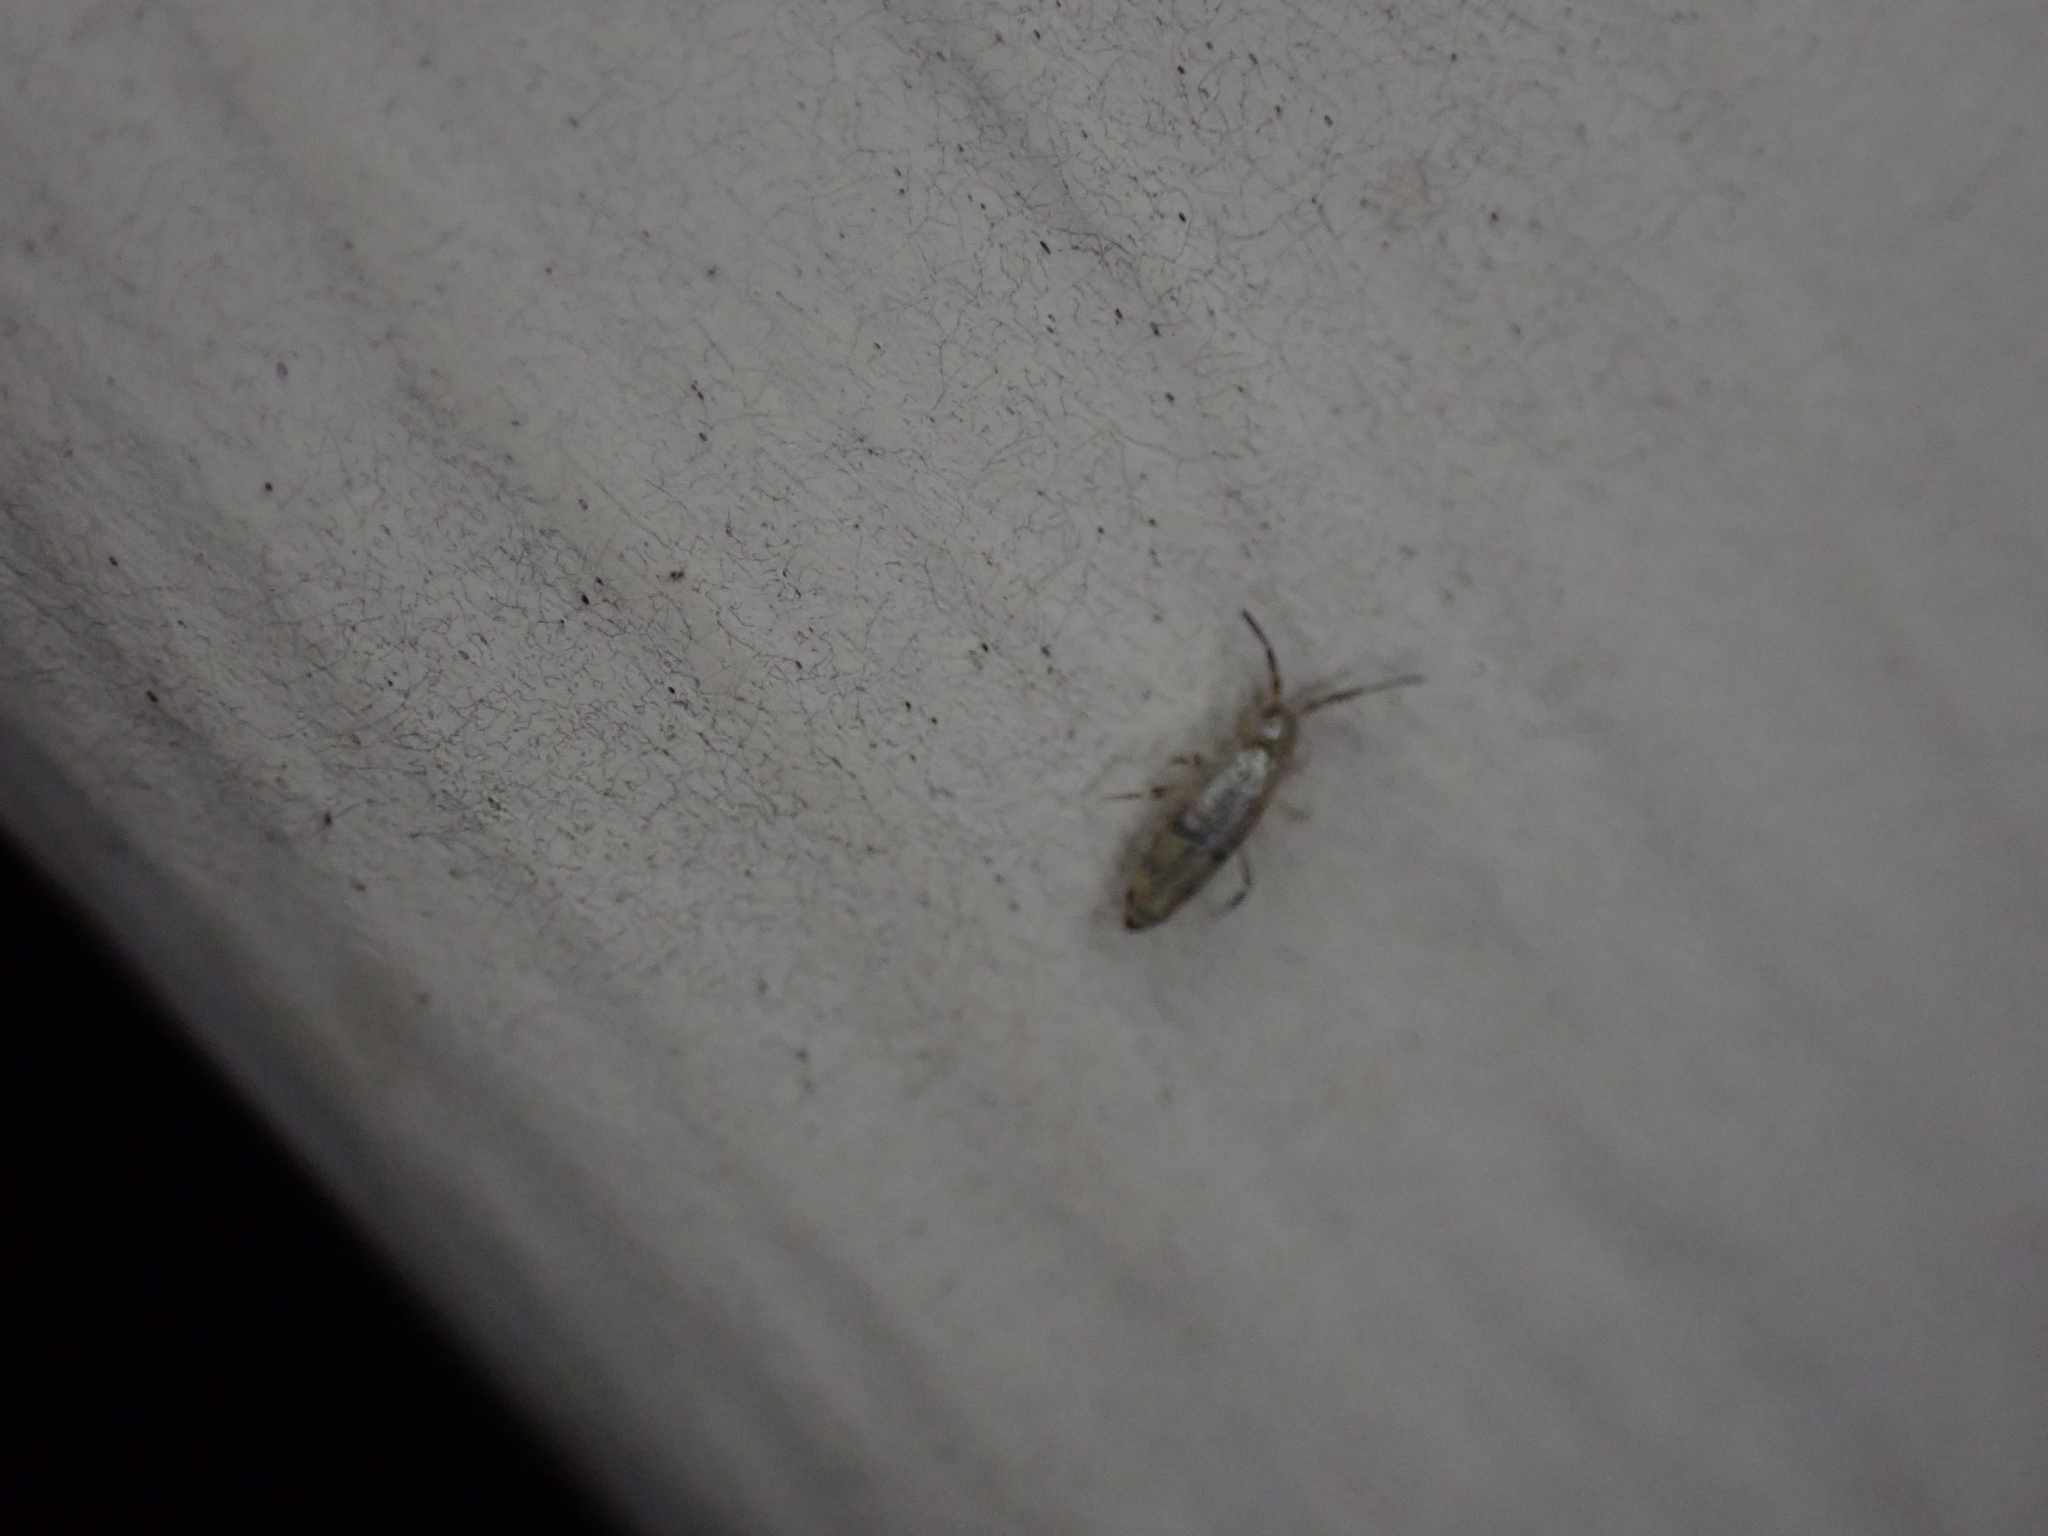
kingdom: Animalia
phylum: Arthropoda
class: Collembola
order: Entomobryomorpha
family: Entomobryidae
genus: Willowsia
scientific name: Willowsia nigromaculata
